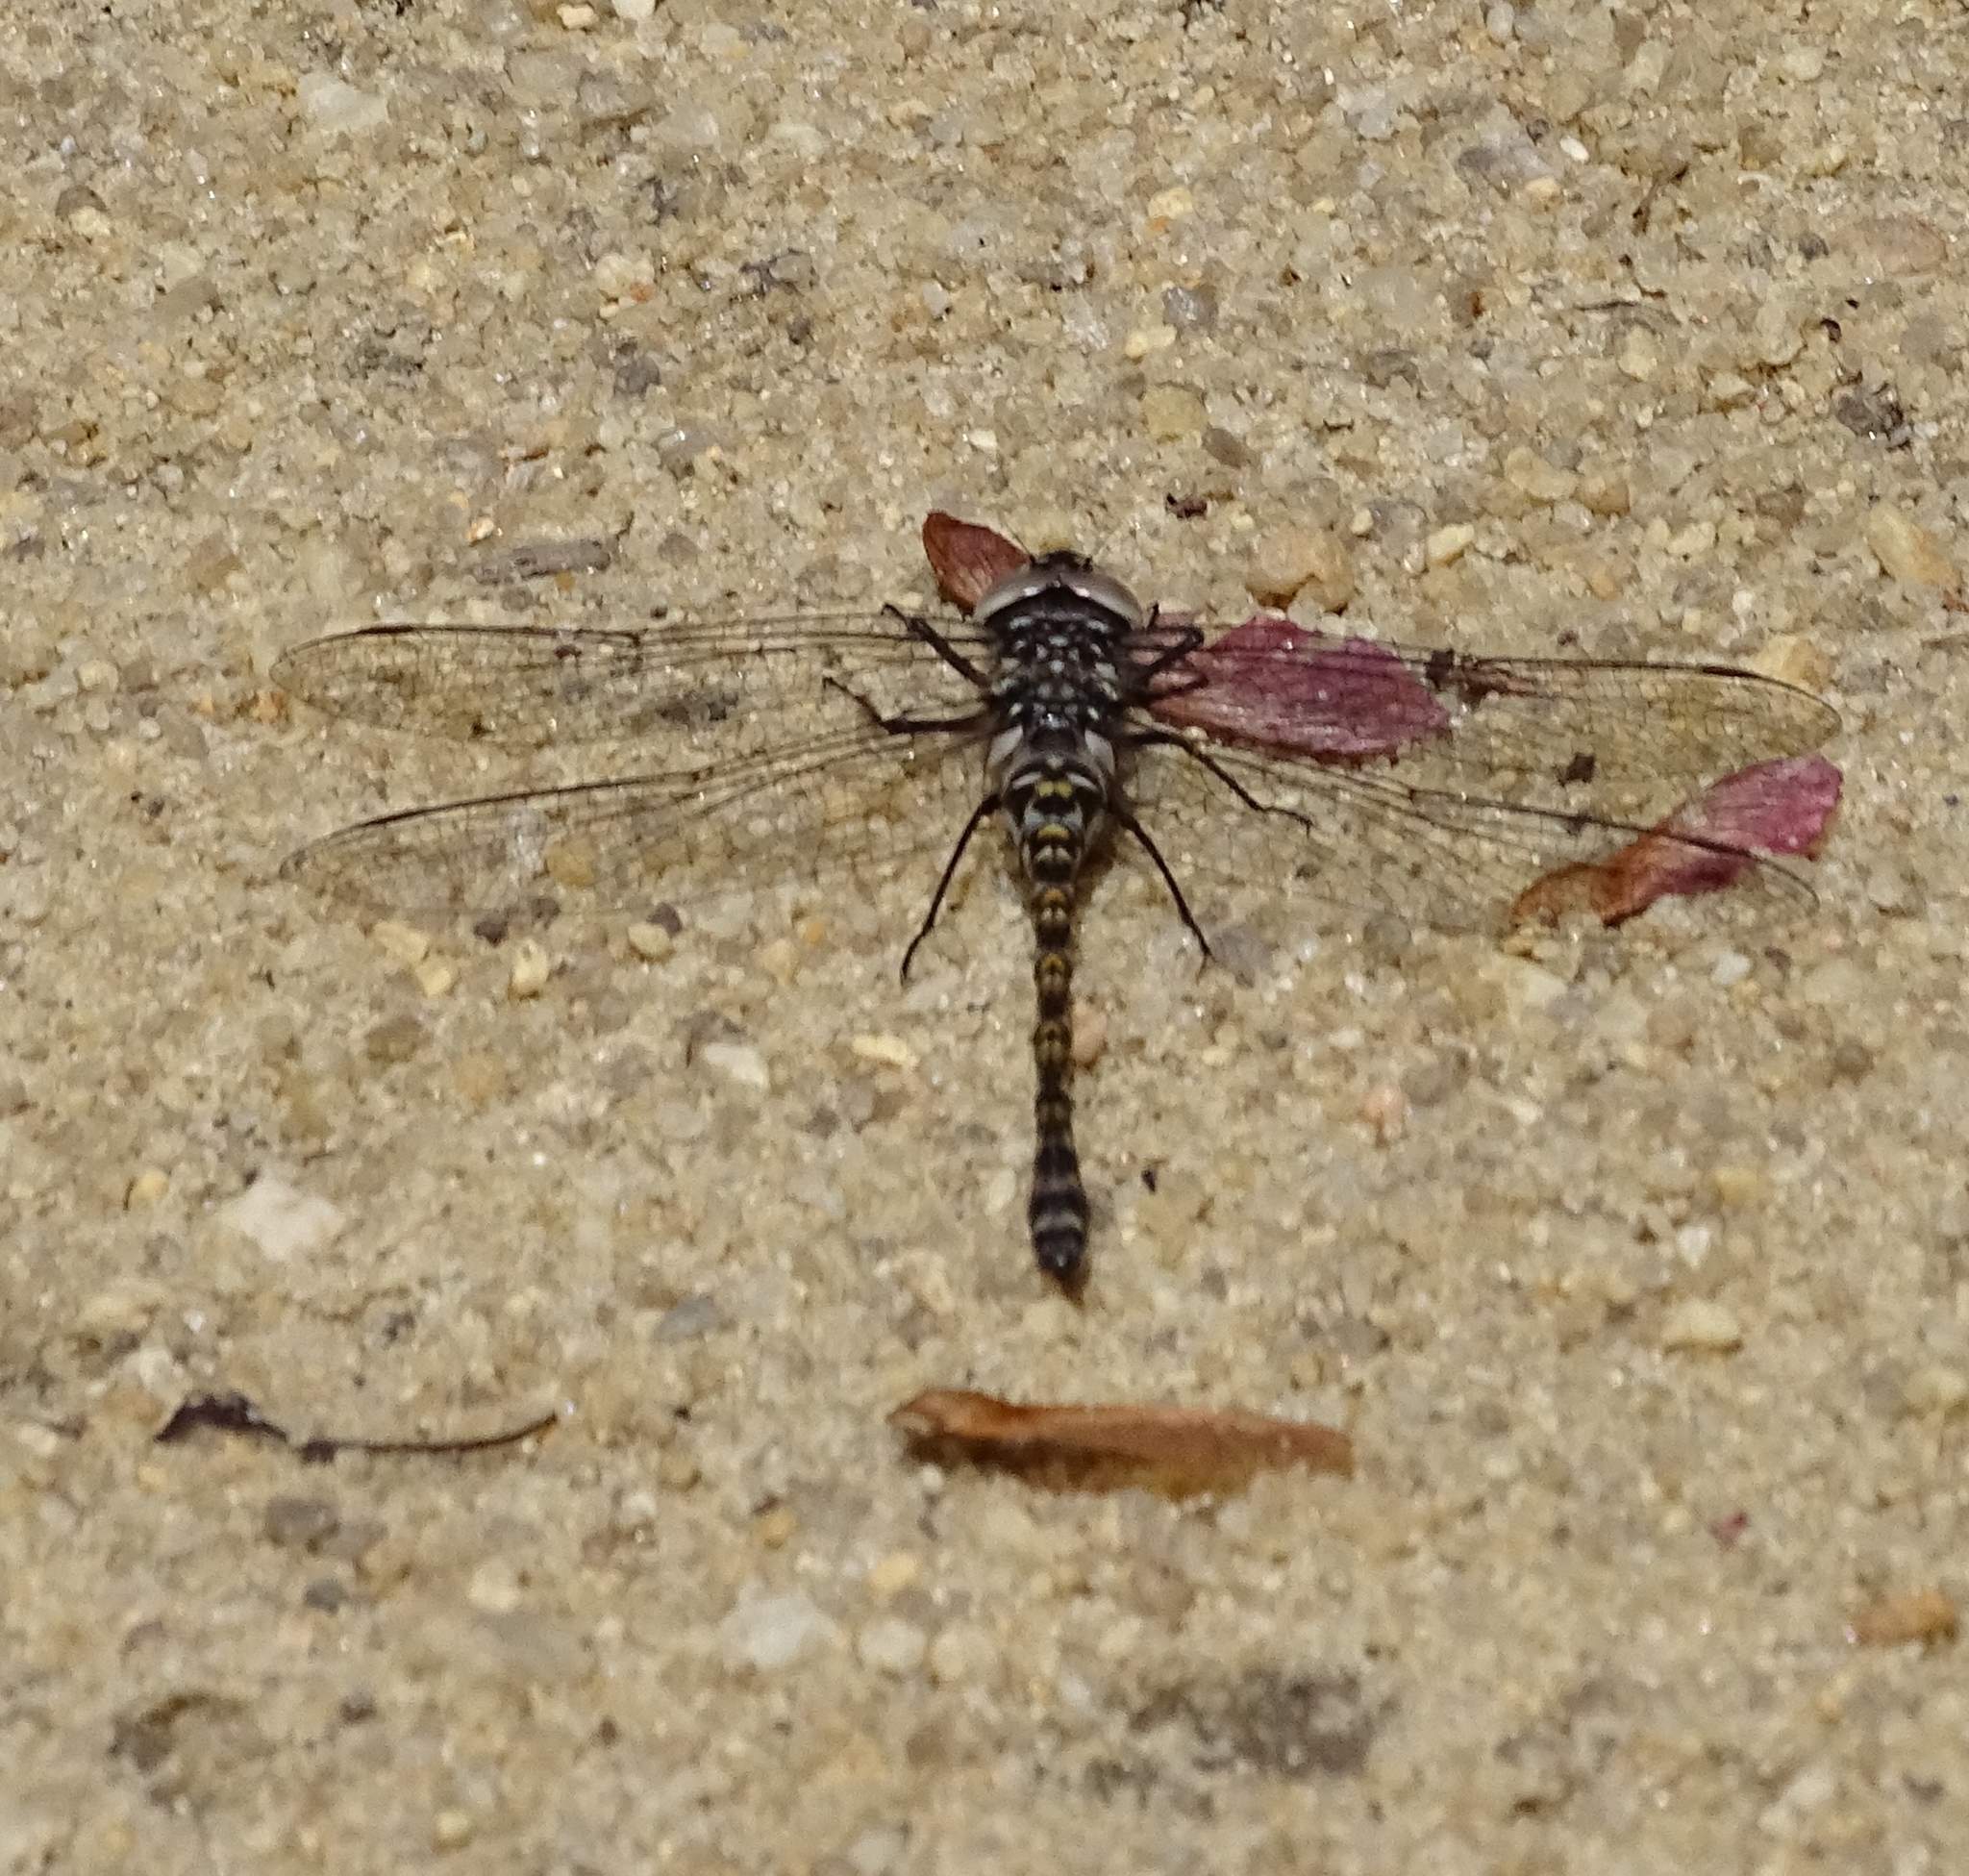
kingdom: Animalia
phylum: Arthropoda
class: Insecta
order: Odonata
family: Aeshnidae
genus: Gomphaeschna
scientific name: Gomphaeschna furcillata
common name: Harlequin darner
